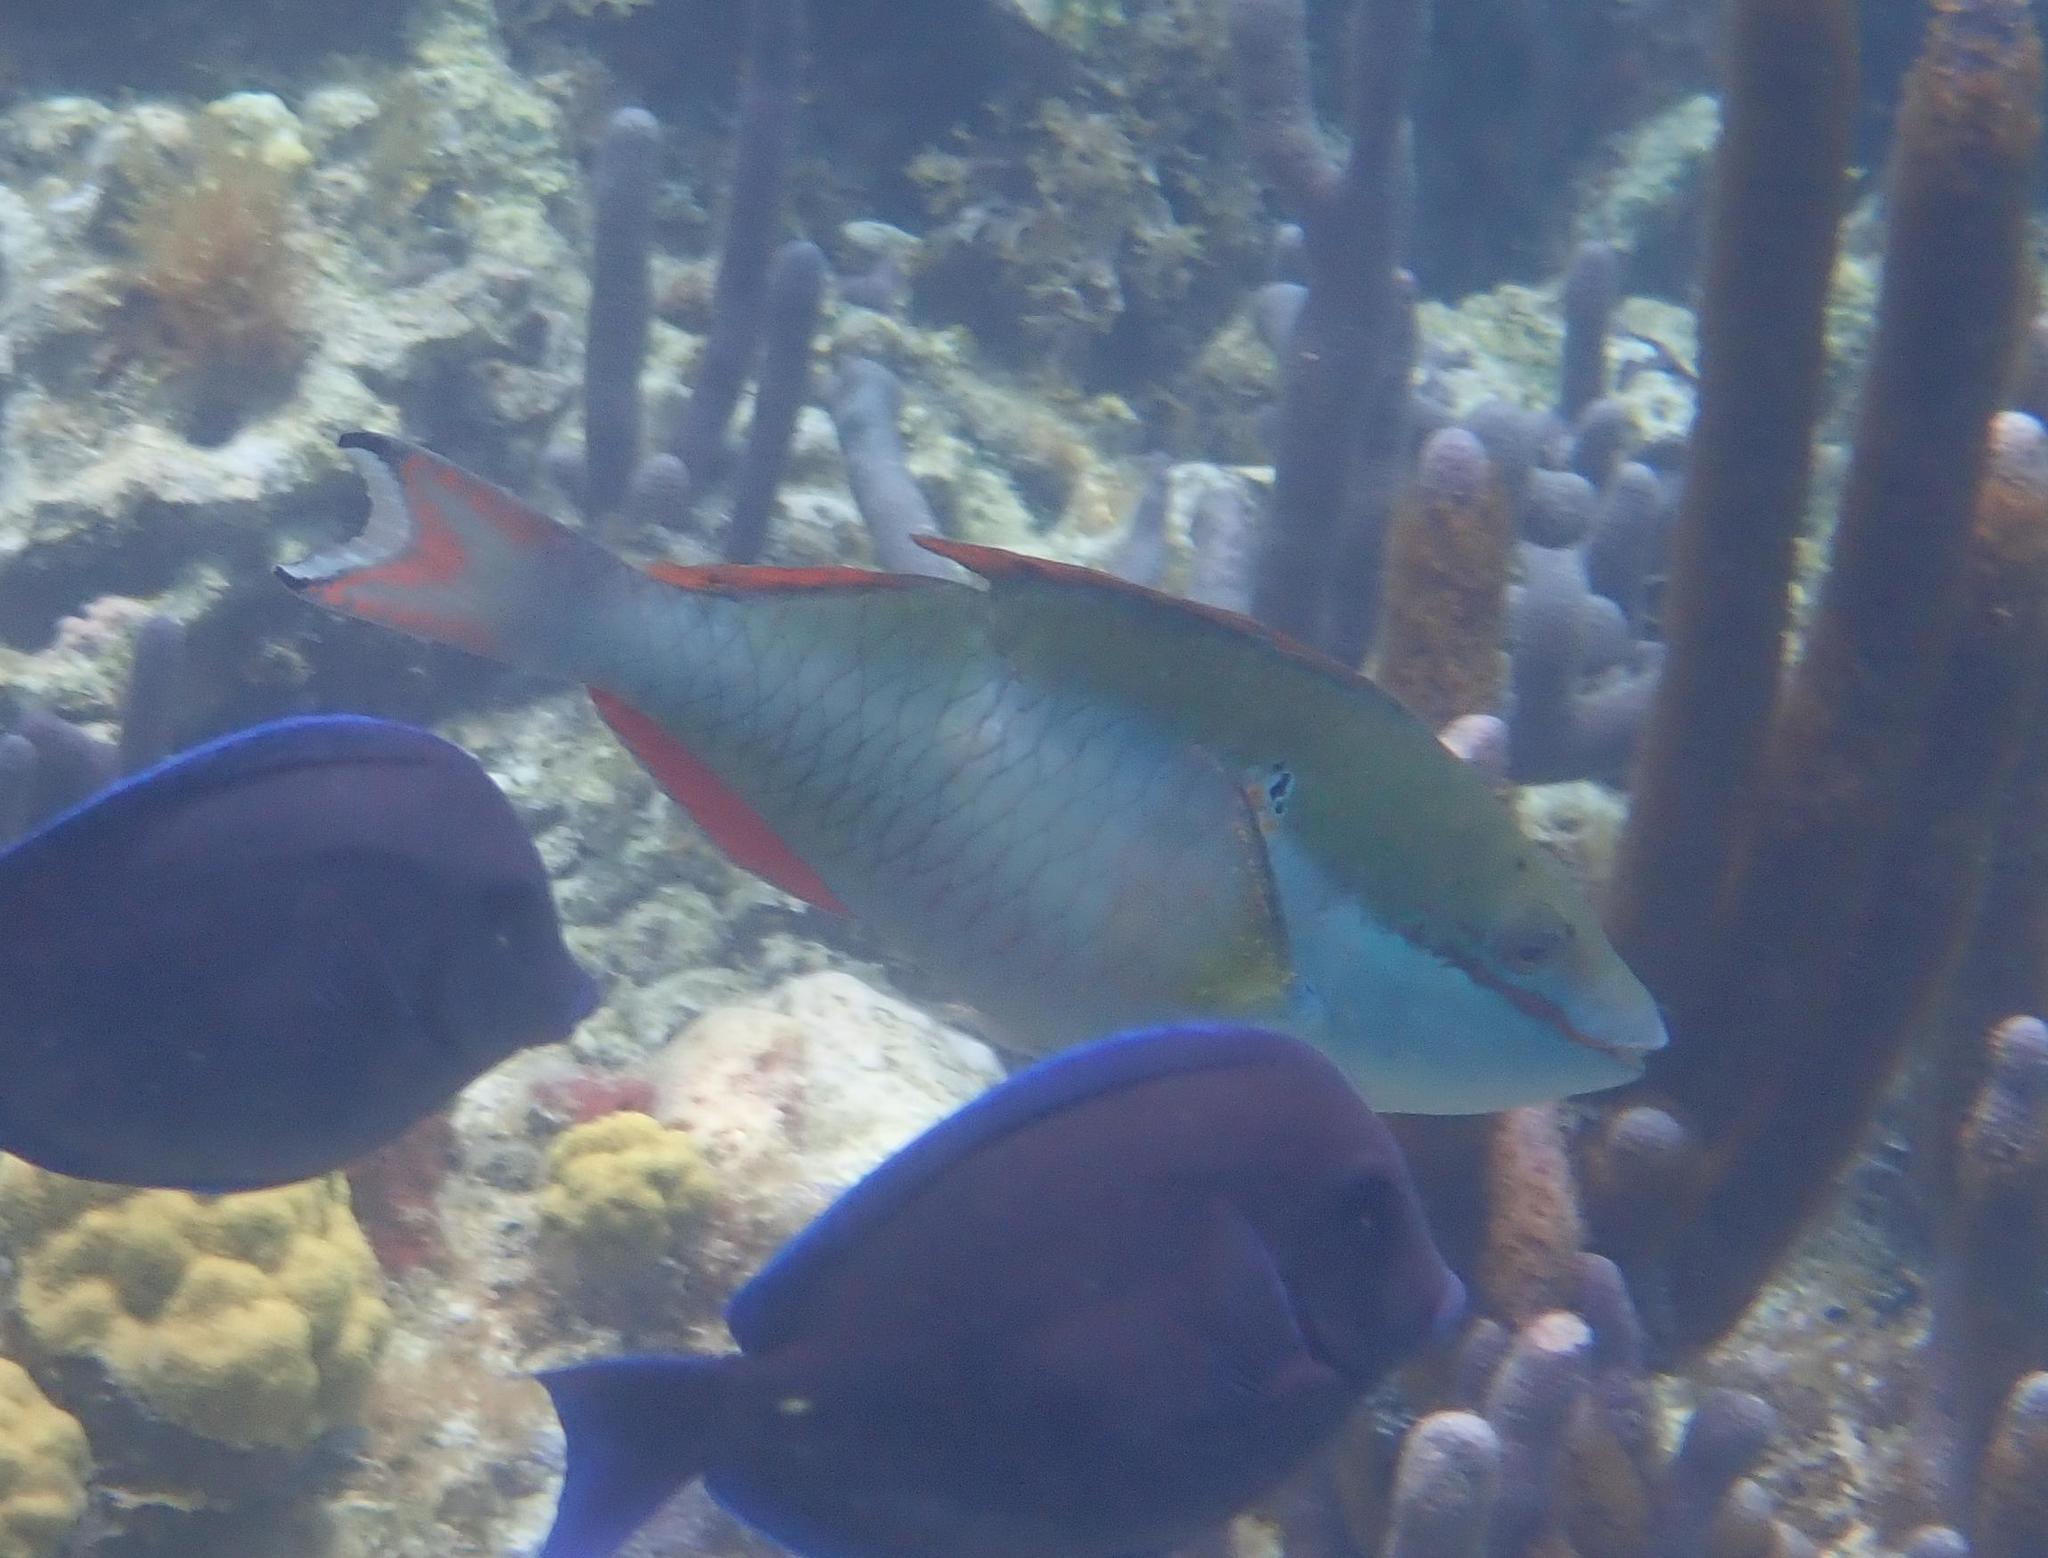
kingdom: Animalia
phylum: Chordata
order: Perciformes
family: Scaridae
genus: Sparisoma
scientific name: Sparisoma aurofrenatum
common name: Redband parrotfish
